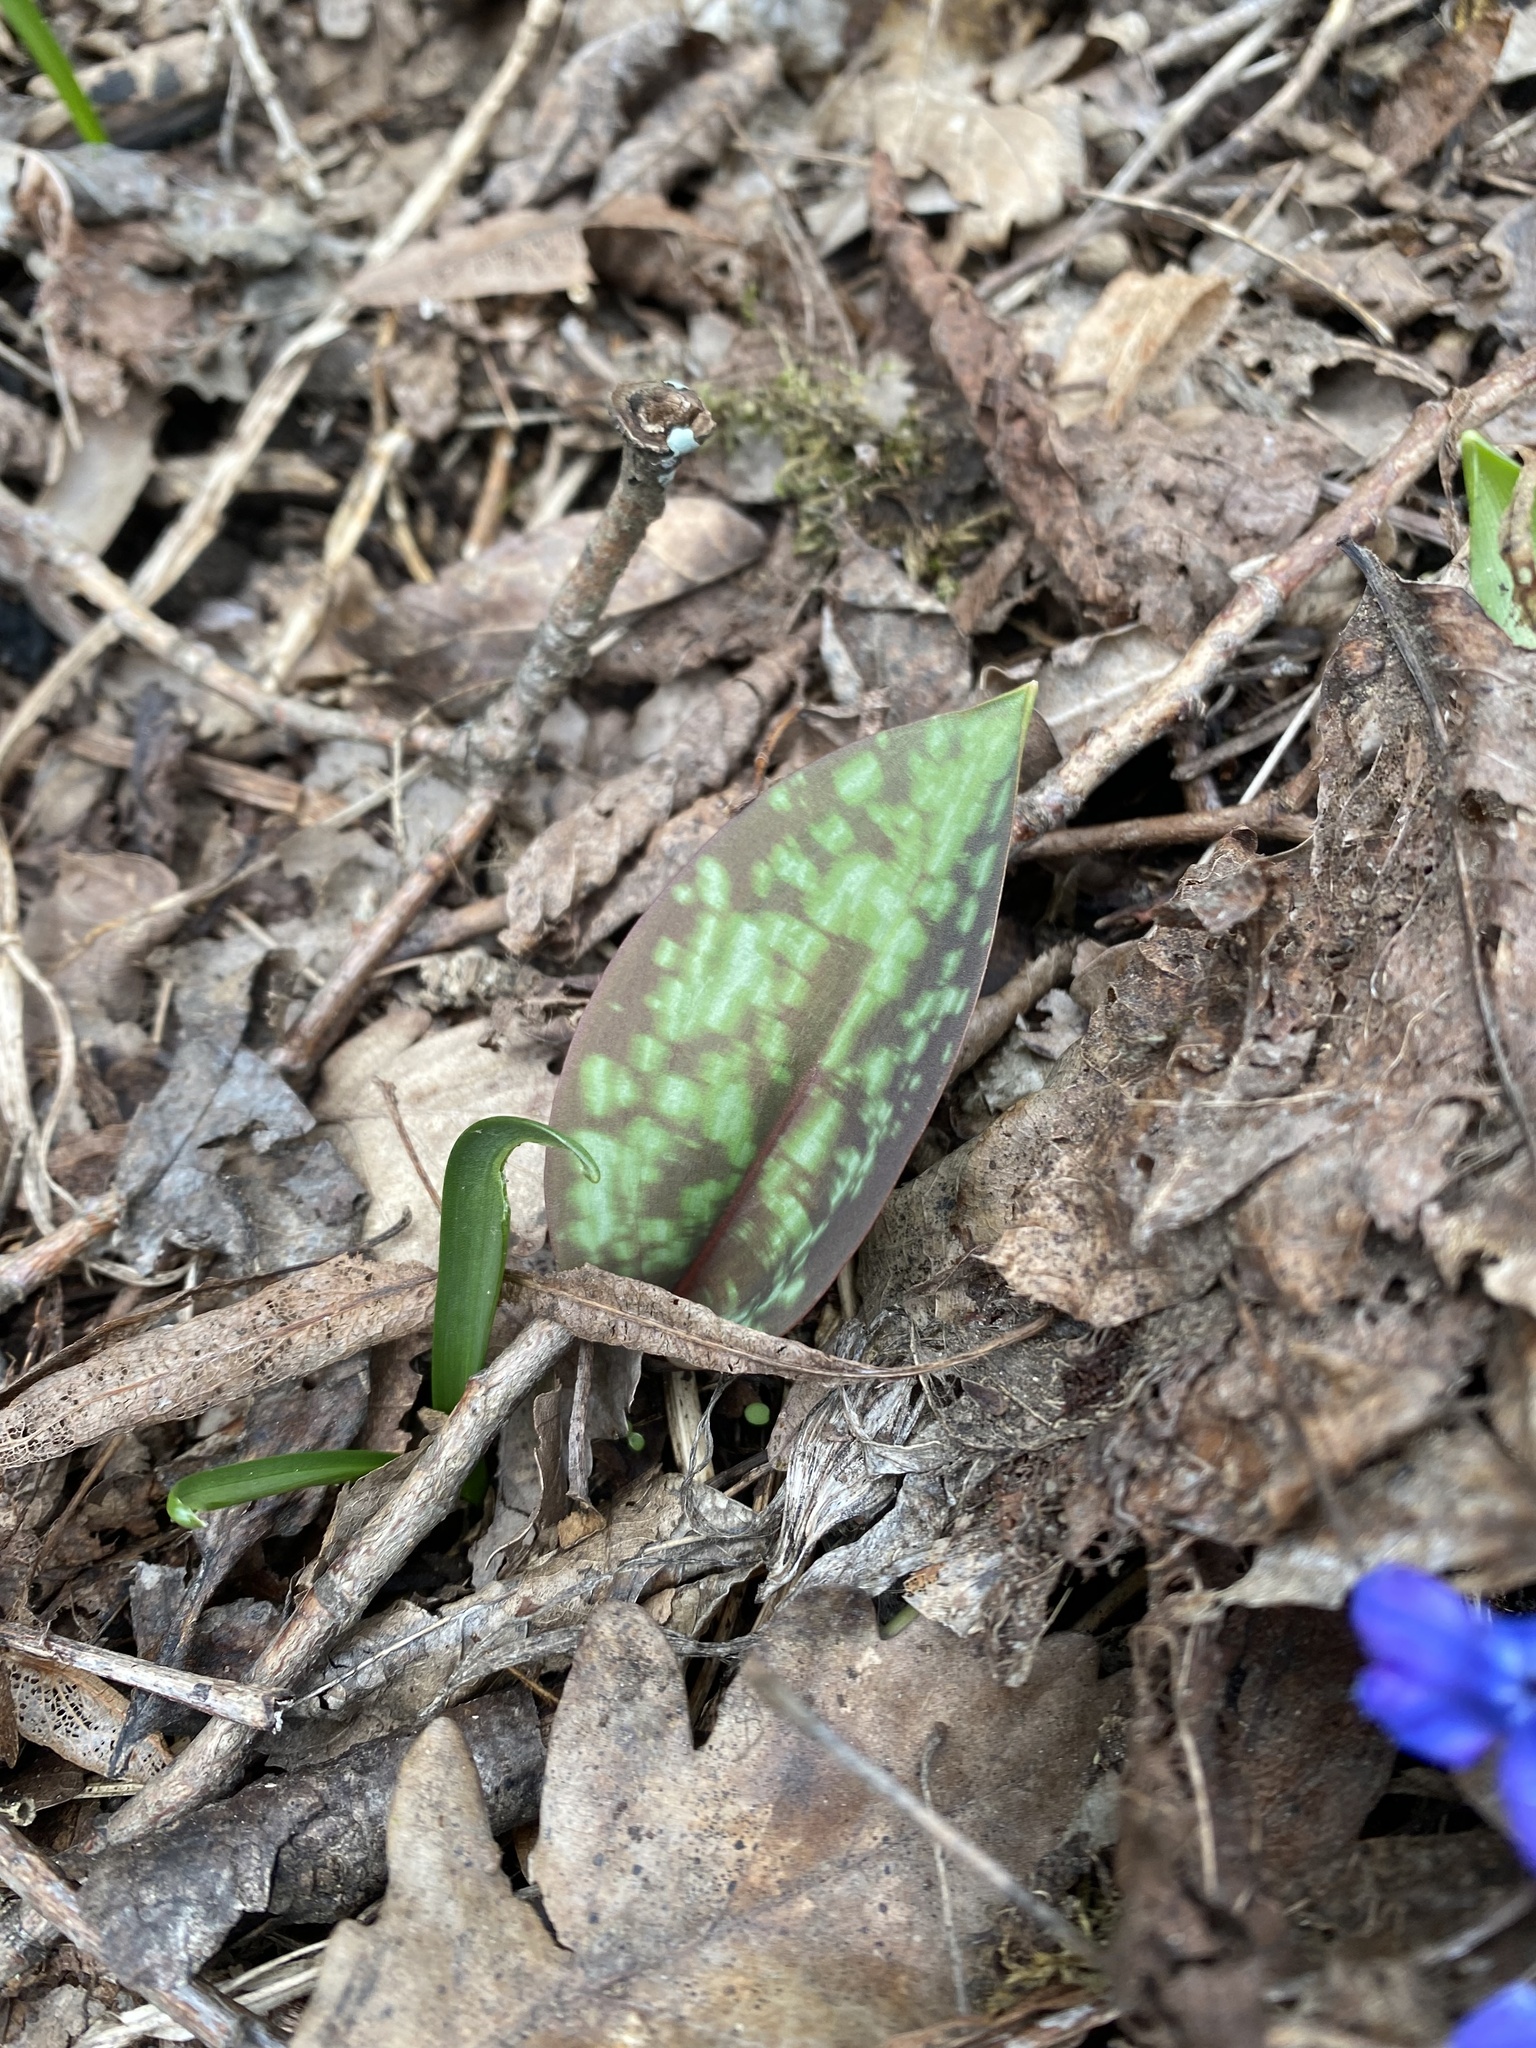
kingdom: Plantae
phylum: Tracheophyta
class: Liliopsida
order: Liliales
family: Liliaceae
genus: Erythronium
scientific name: Erythronium caucasicum
